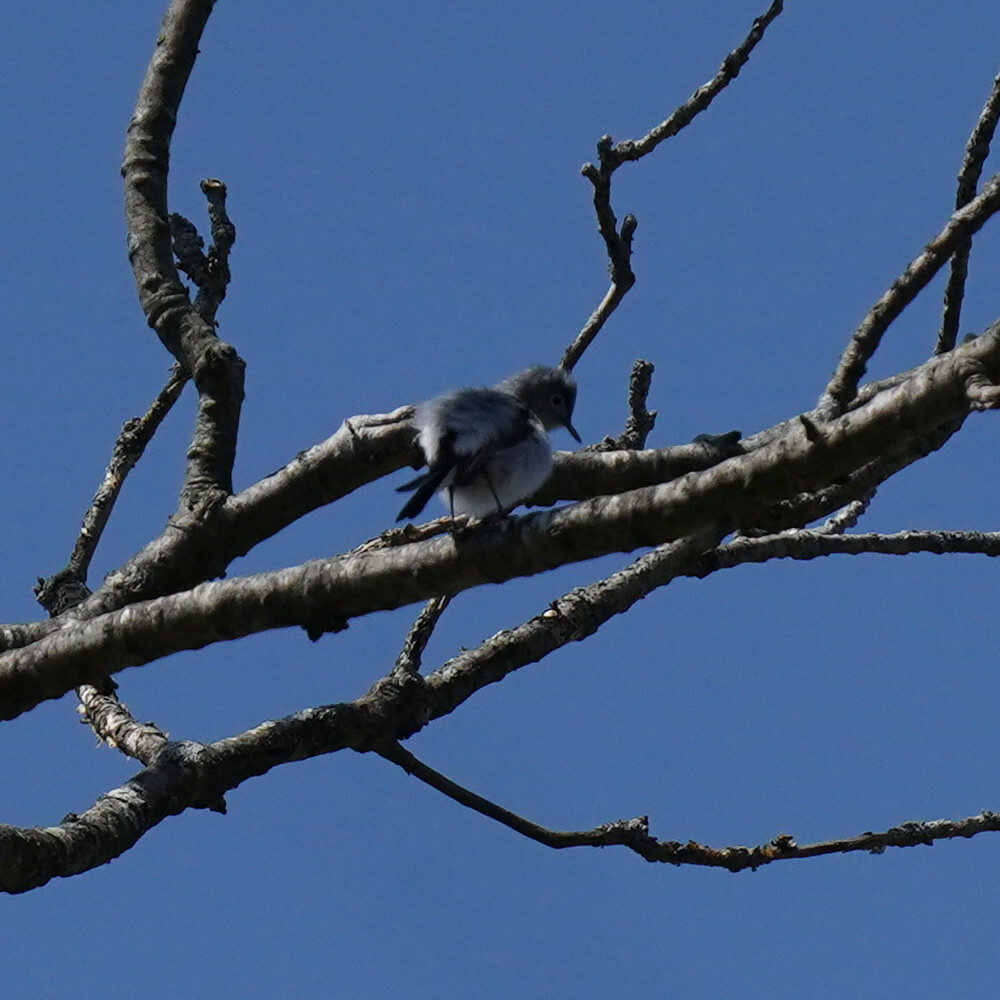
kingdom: Animalia
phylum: Chordata
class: Aves
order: Passeriformes
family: Polioptilidae
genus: Polioptila
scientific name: Polioptila caerulea
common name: Blue-gray gnatcatcher
